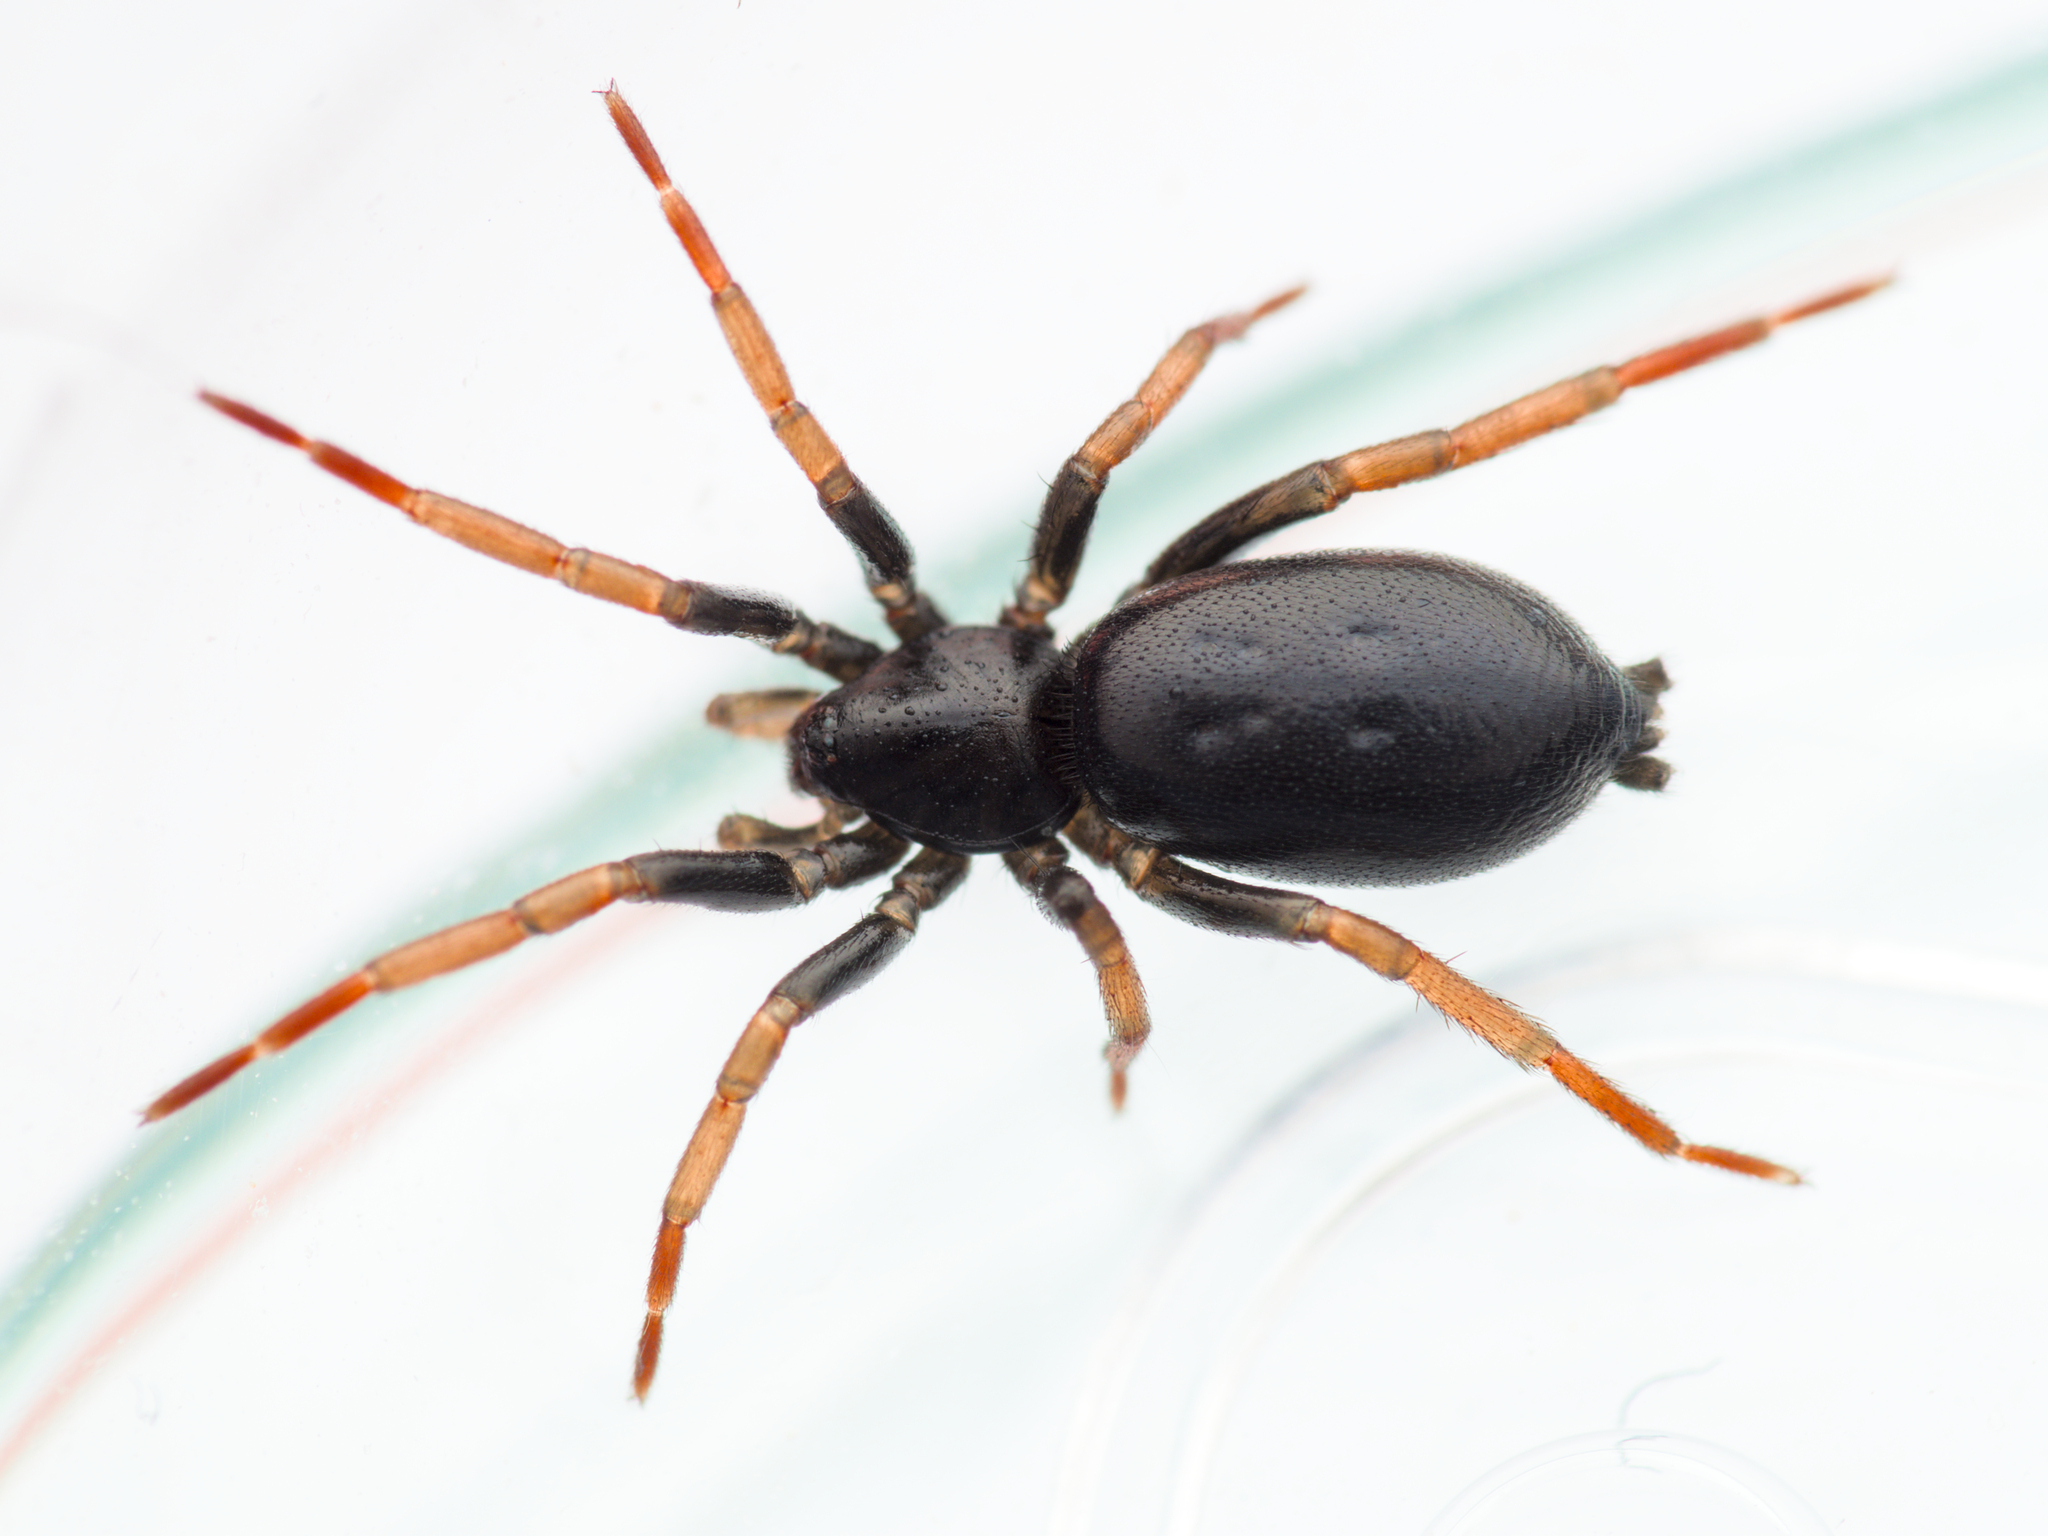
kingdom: Animalia
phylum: Arthropoda
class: Arachnida
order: Araneae
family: Gnaphosidae
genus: Trachyzelotes
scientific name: Trachyzelotes pedestris
